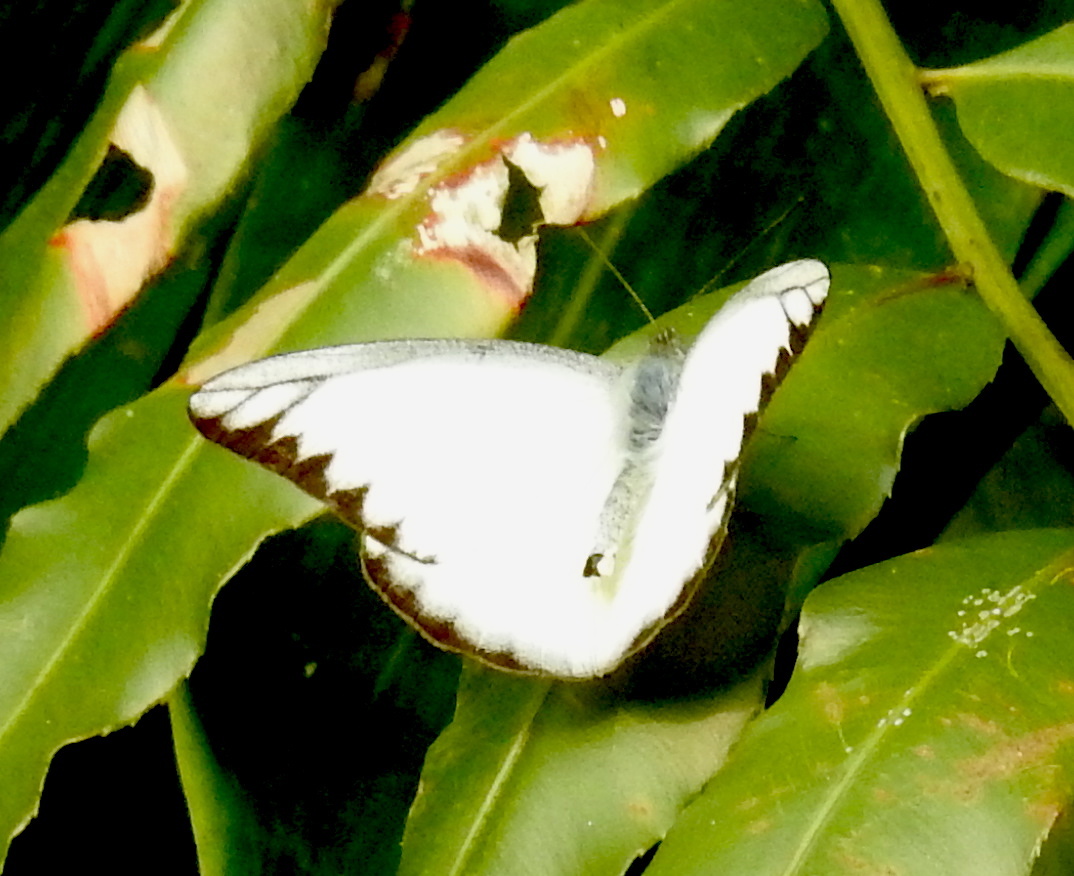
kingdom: Animalia
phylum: Arthropoda
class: Insecta
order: Lepidoptera
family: Pieridae
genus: Appias
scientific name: Appias libythea
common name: Striped albatross
